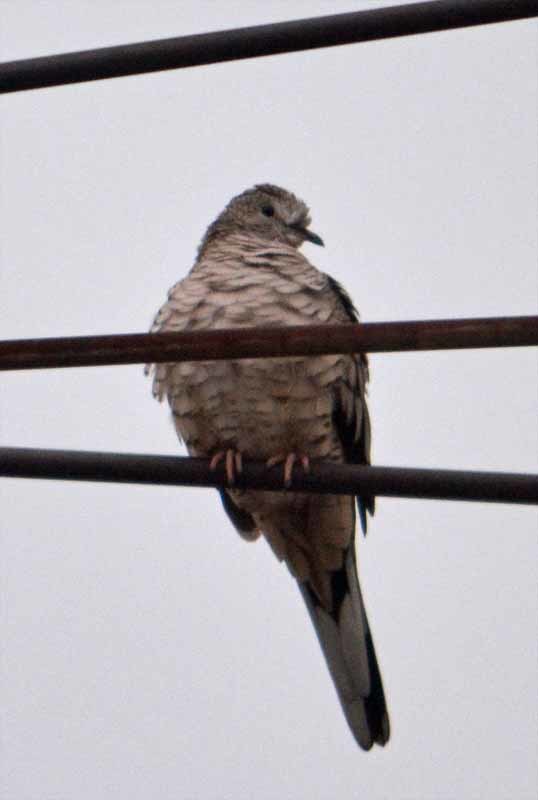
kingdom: Animalia
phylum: Chordata
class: Aves
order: Columbiformes
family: Columbidae
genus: Columbina
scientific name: Columbina inca
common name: Inca dove
